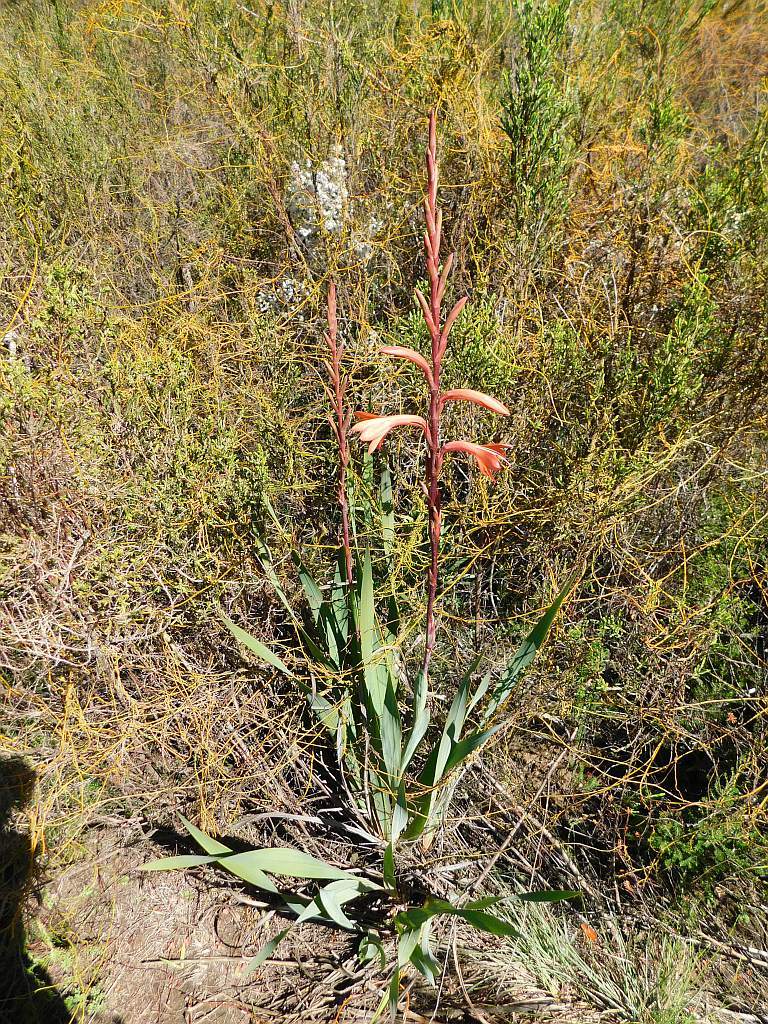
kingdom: Plantae
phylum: Tracheophyta
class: Liliopsida
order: Asparagales
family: Iridaceae
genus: Watsonia
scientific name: Watsonia meriana
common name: Bulbil bugle-lily
